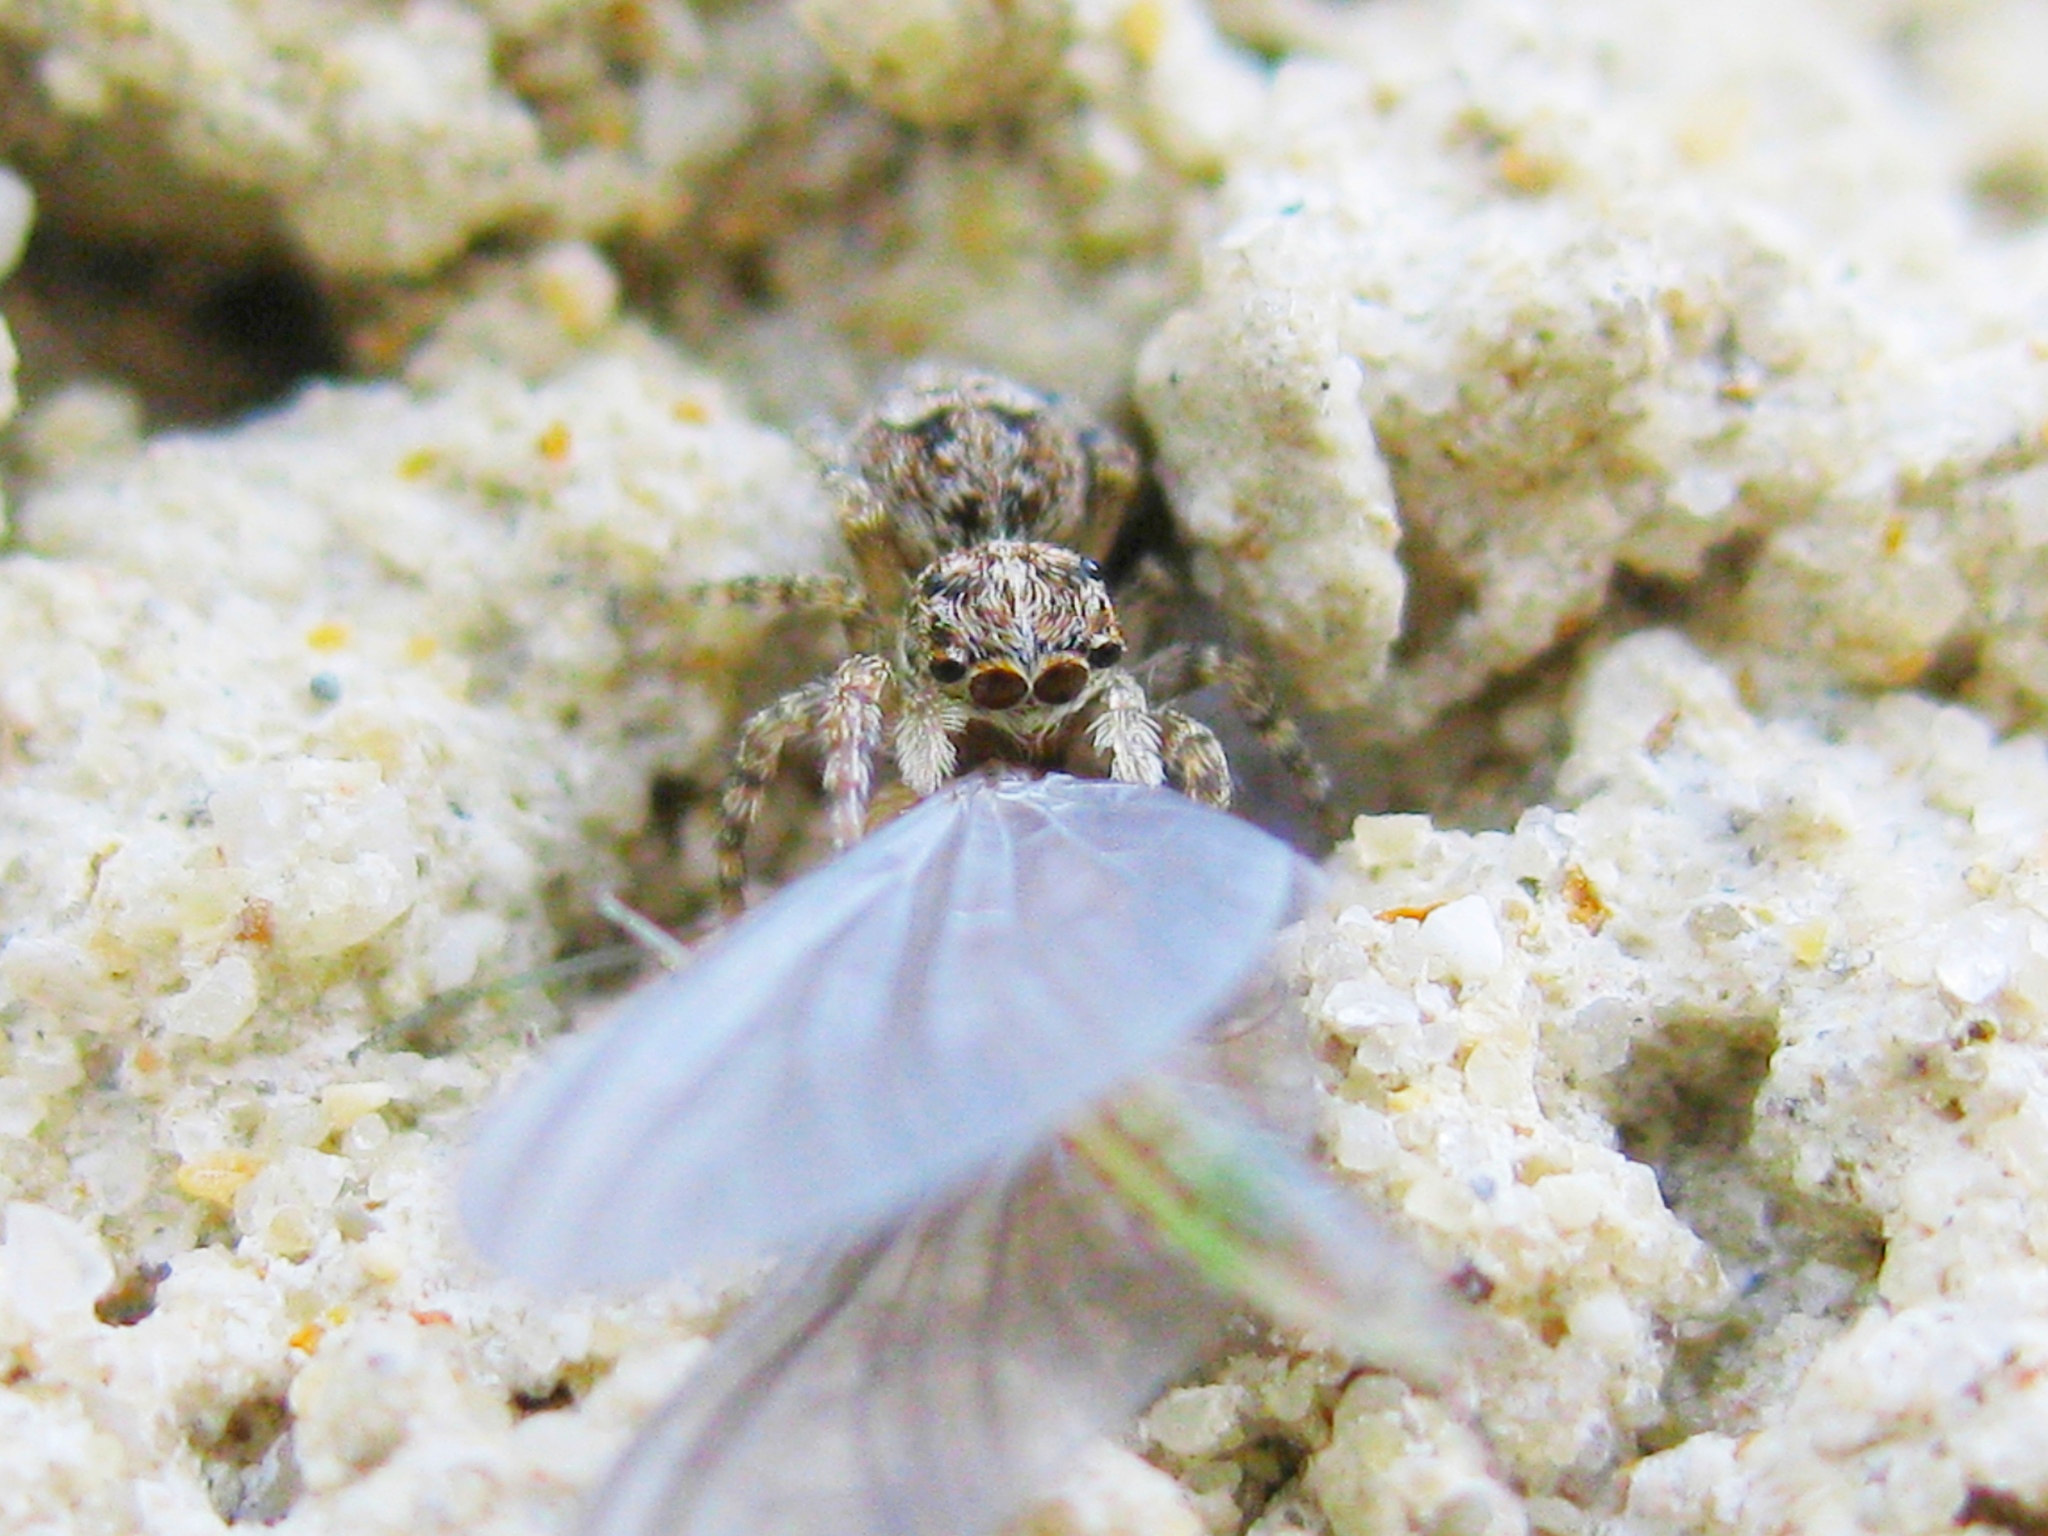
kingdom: Animalia
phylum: Arthropoda
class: Arachnida
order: Araneae
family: Salticidae
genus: Attulus
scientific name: Attulus relictarius
